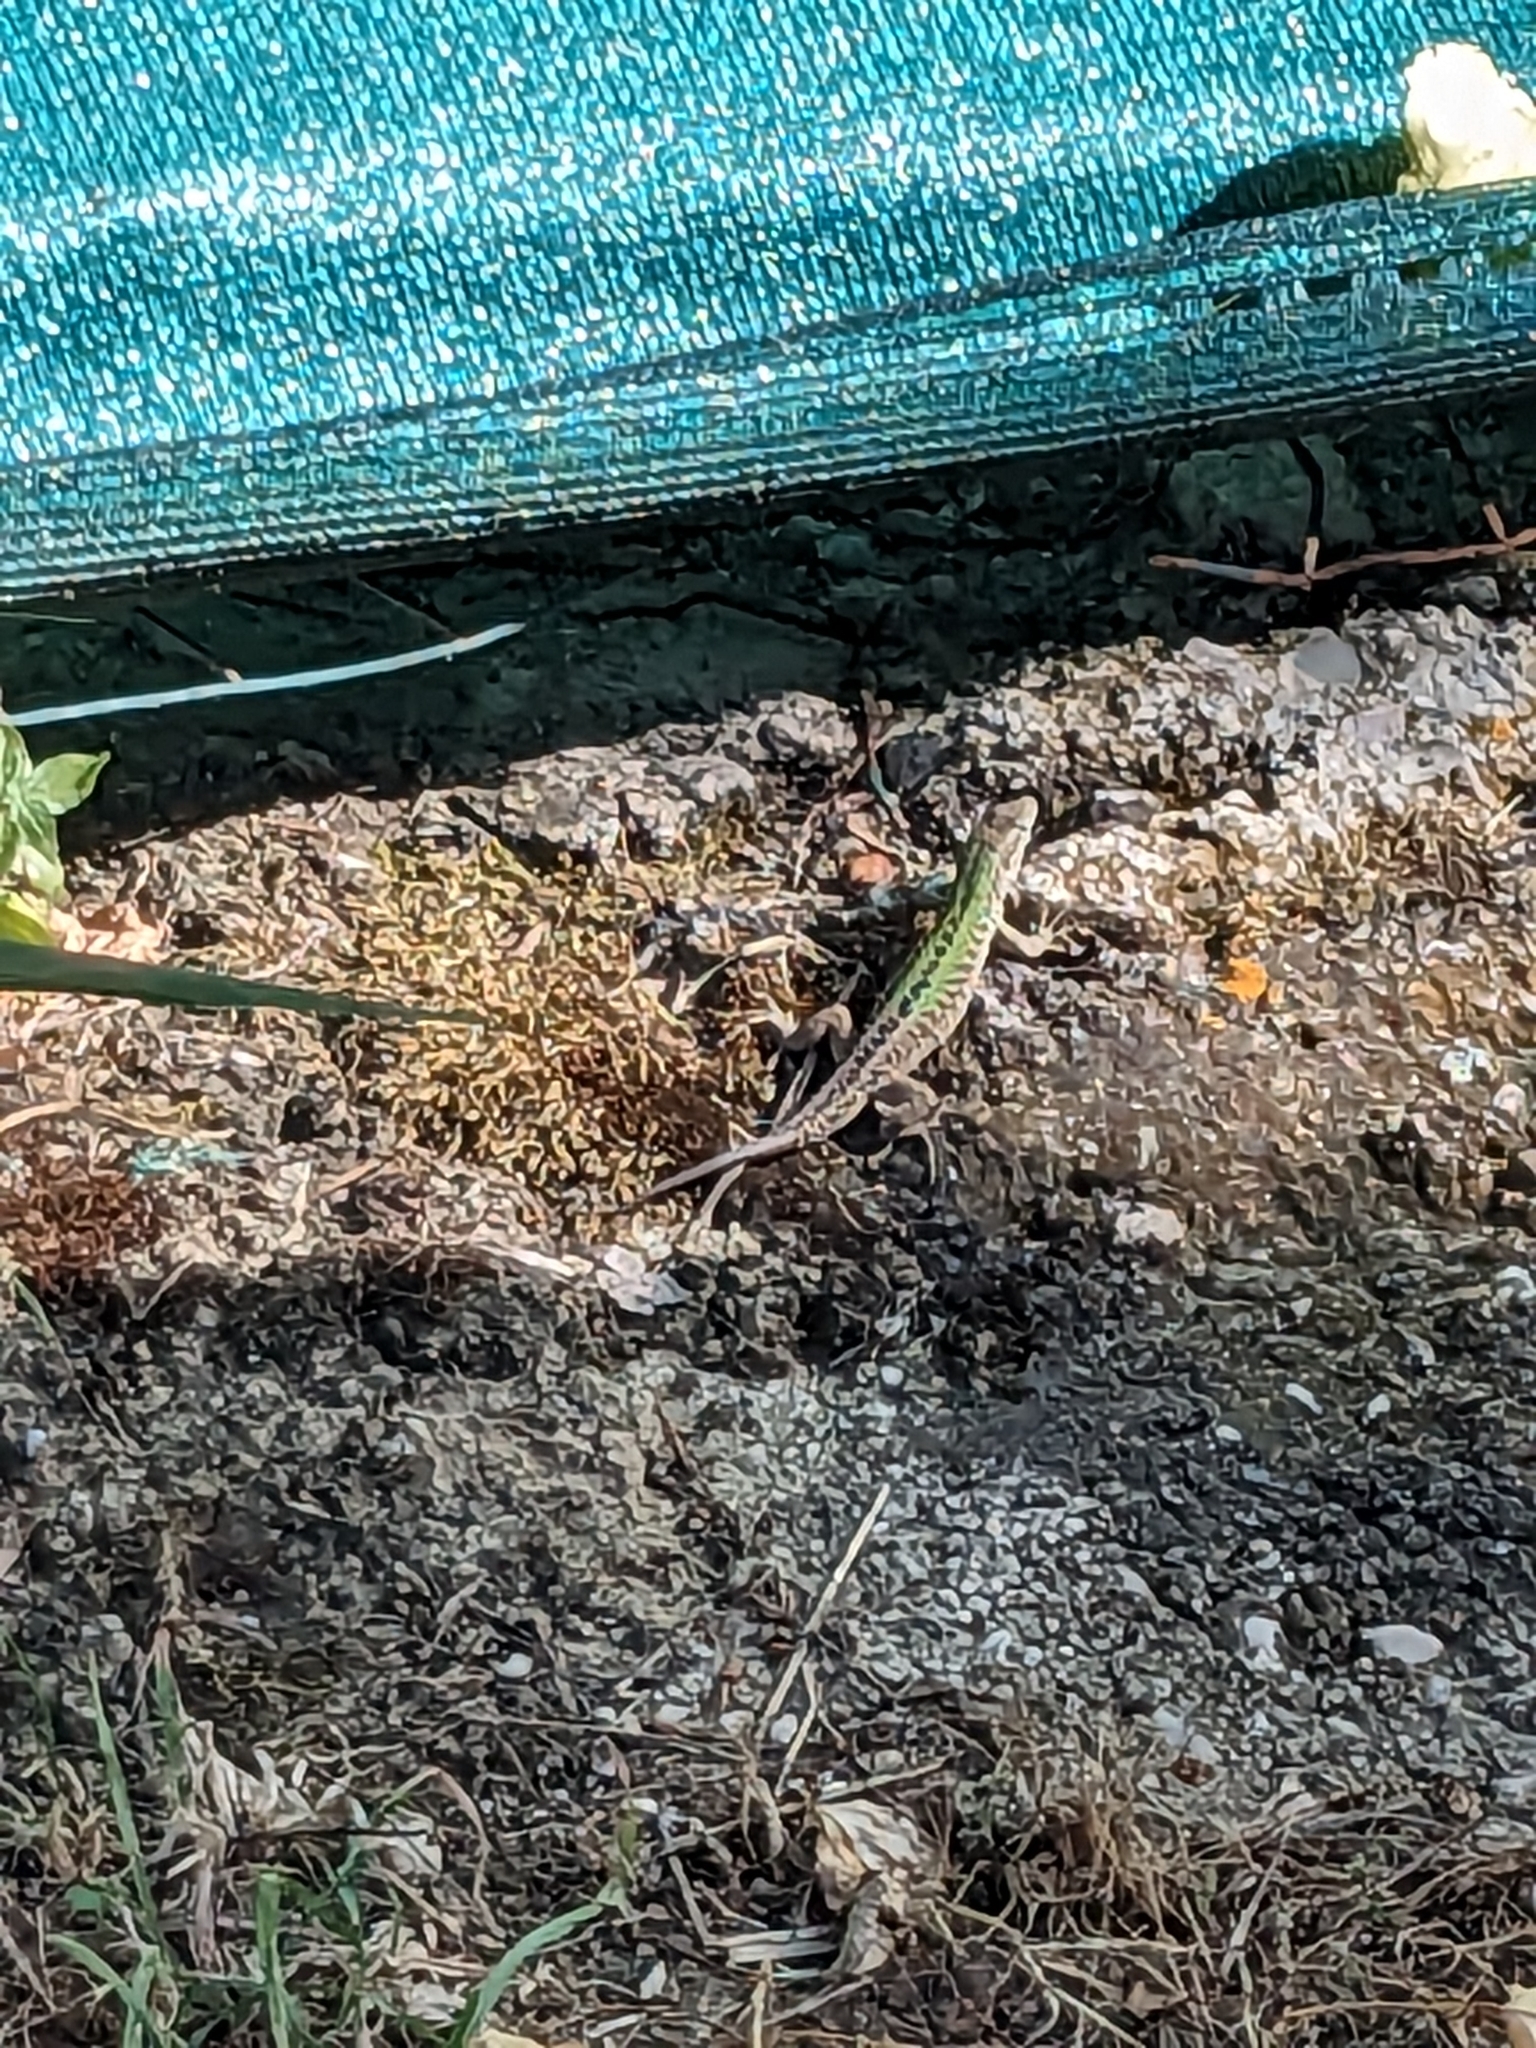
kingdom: Animalia
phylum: Chordata
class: Squamata
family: Lacertidae
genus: Podarcis
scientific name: Podarcis siculus
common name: Italian wall lizard
